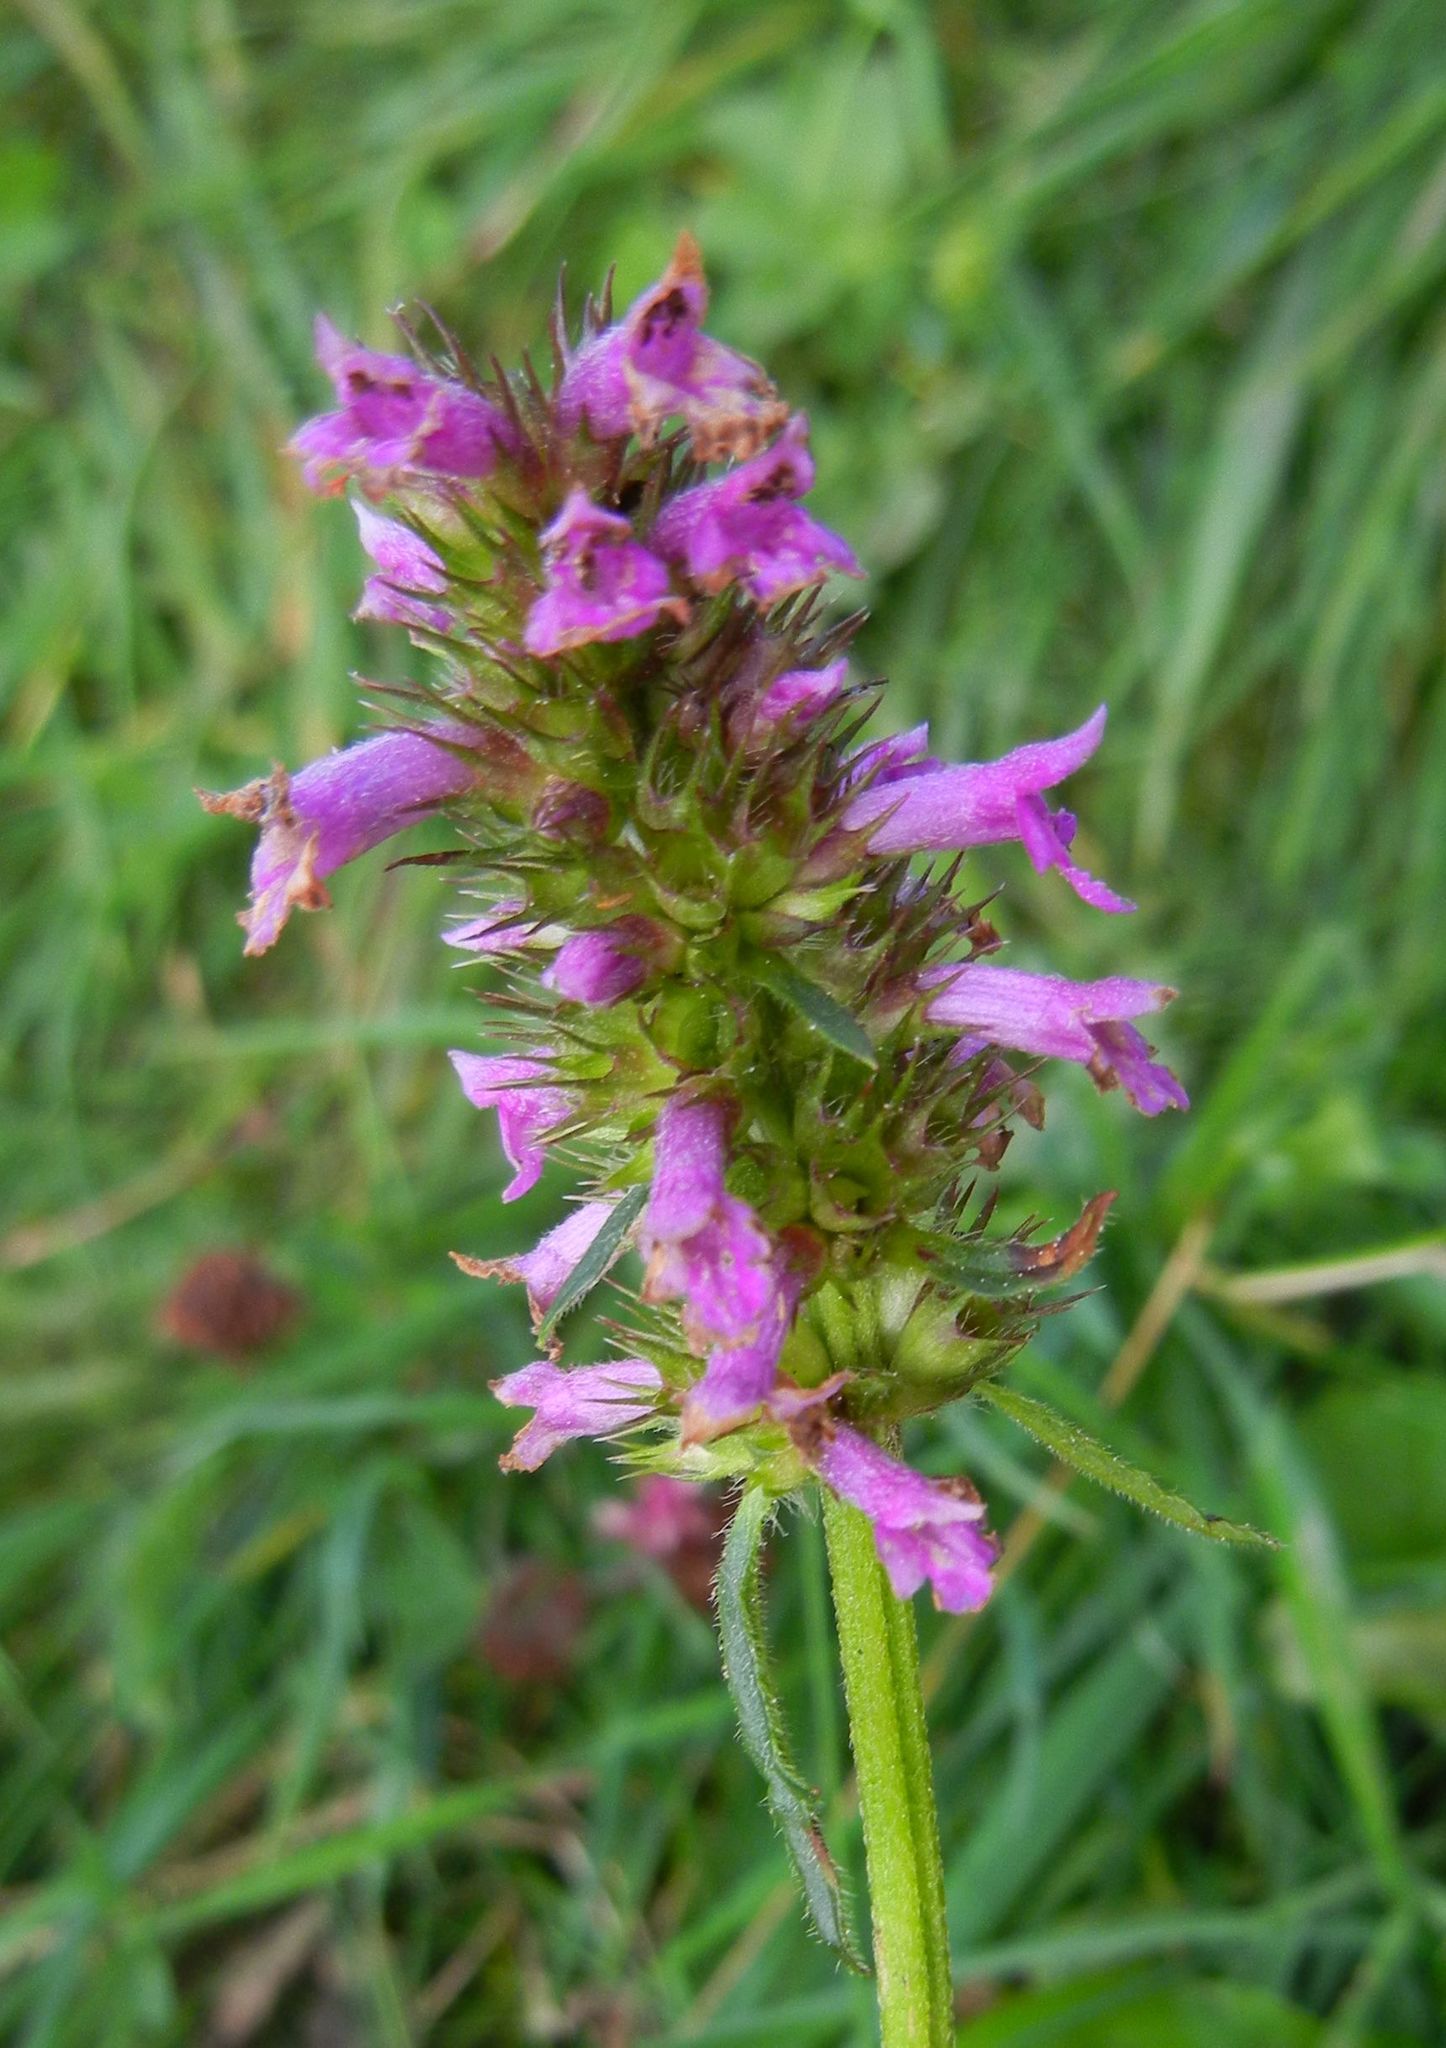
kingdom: Plantae
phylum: Tracheophyta
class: Magnoliopsida
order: Lamiales
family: Lamiaceae
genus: Betonica
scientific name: Betonica officinalis
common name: Bishop's-wort
